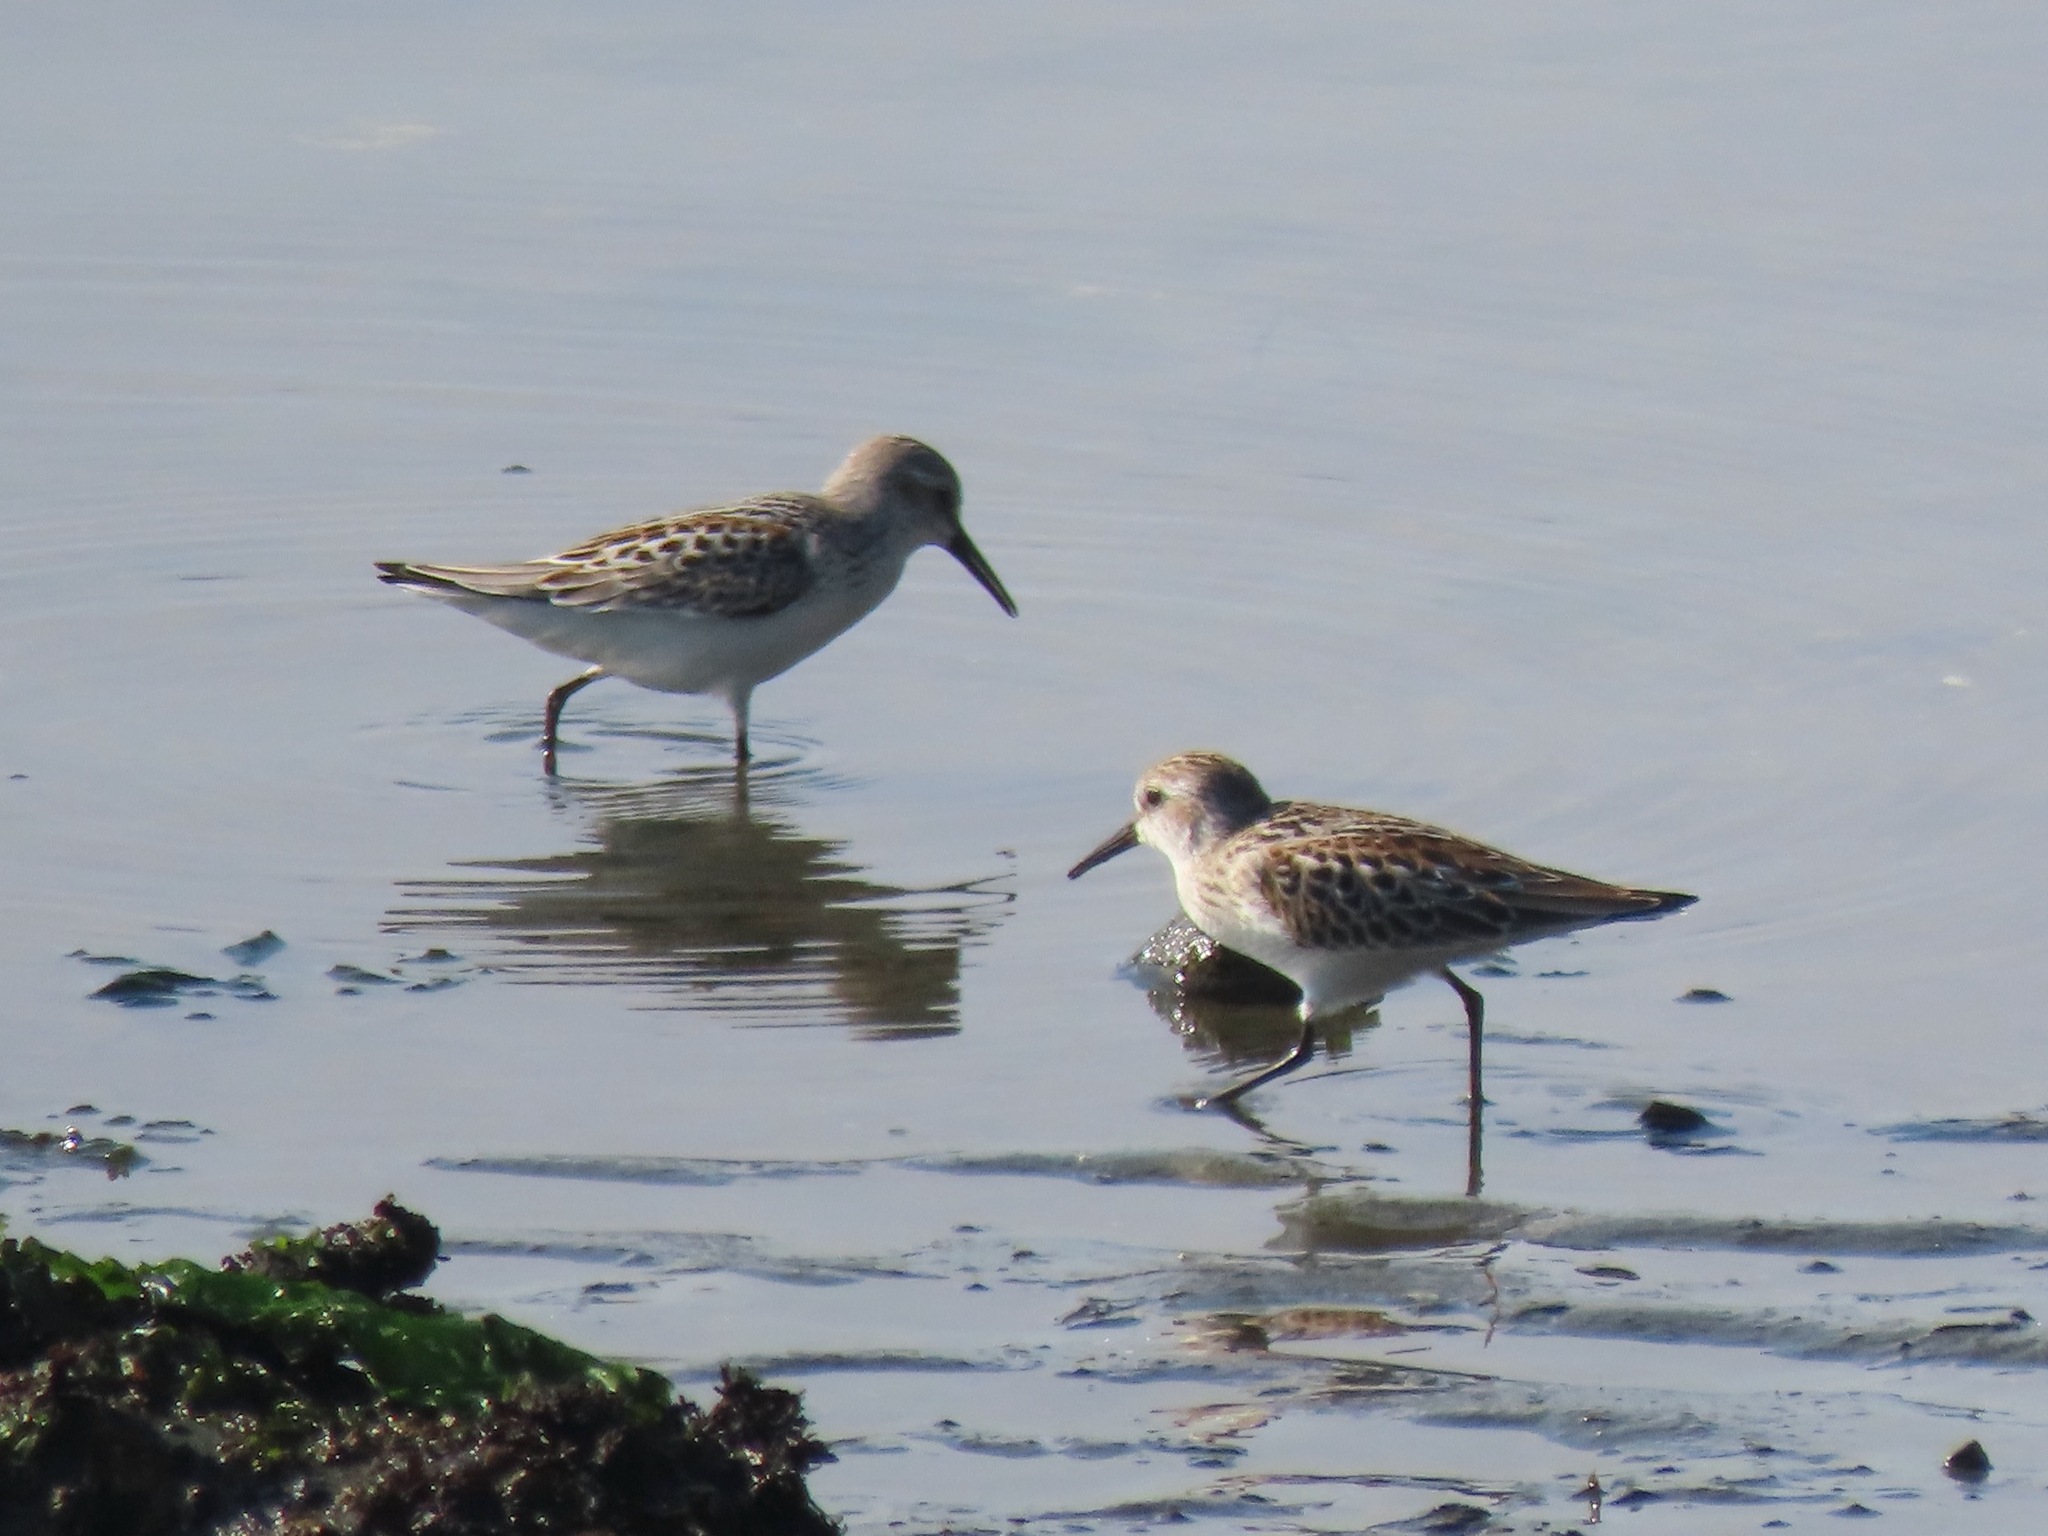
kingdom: Animalia
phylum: Chordata
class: Aves
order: Charadriiformes
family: Scolopacidae
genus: Calidris
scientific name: Calidris mauri
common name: Western sandpiper
